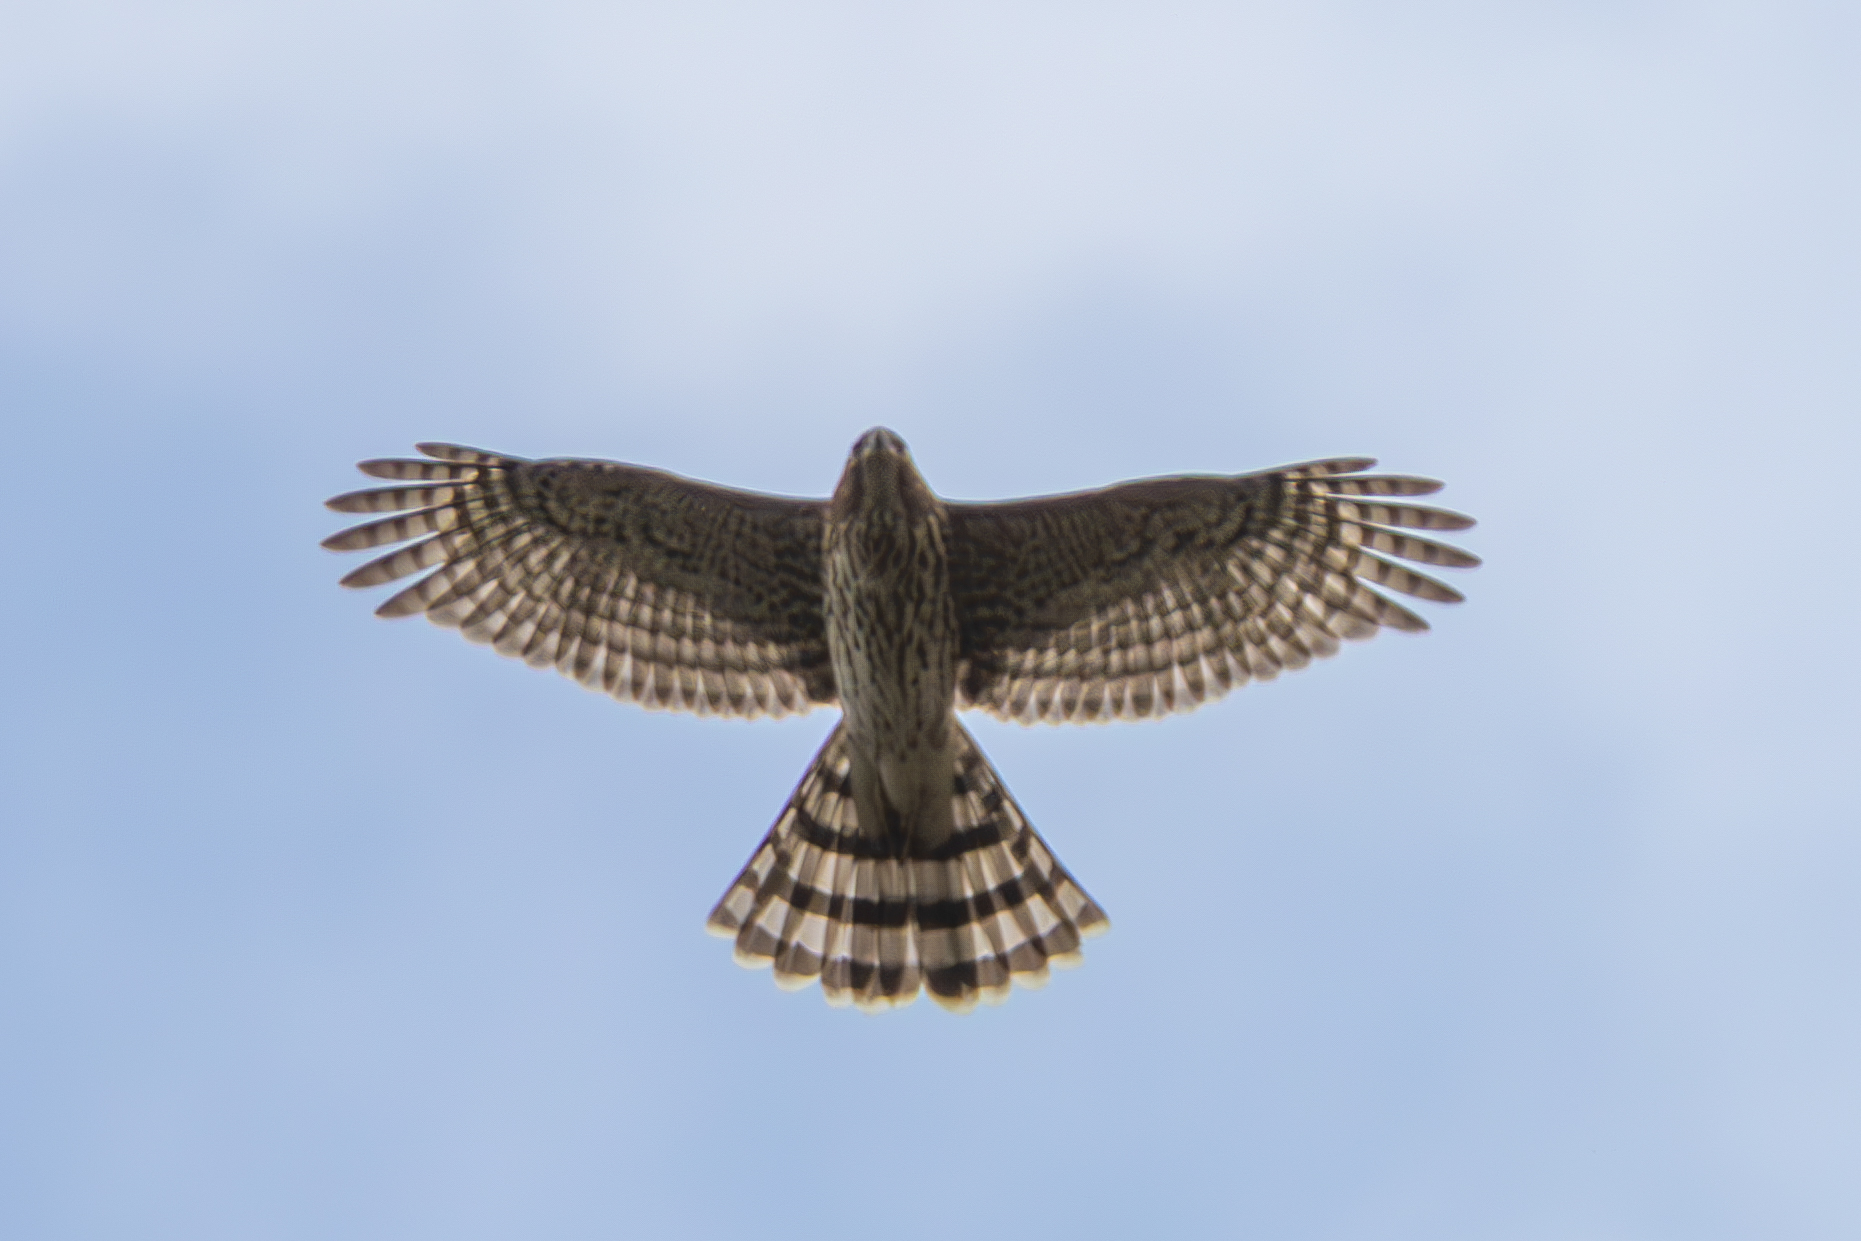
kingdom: Animalia
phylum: Chordata
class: Aves
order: Accipitriformes
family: Accipitridae
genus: Accipiter
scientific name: Accipiter cooperii
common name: Cooper's hawk
